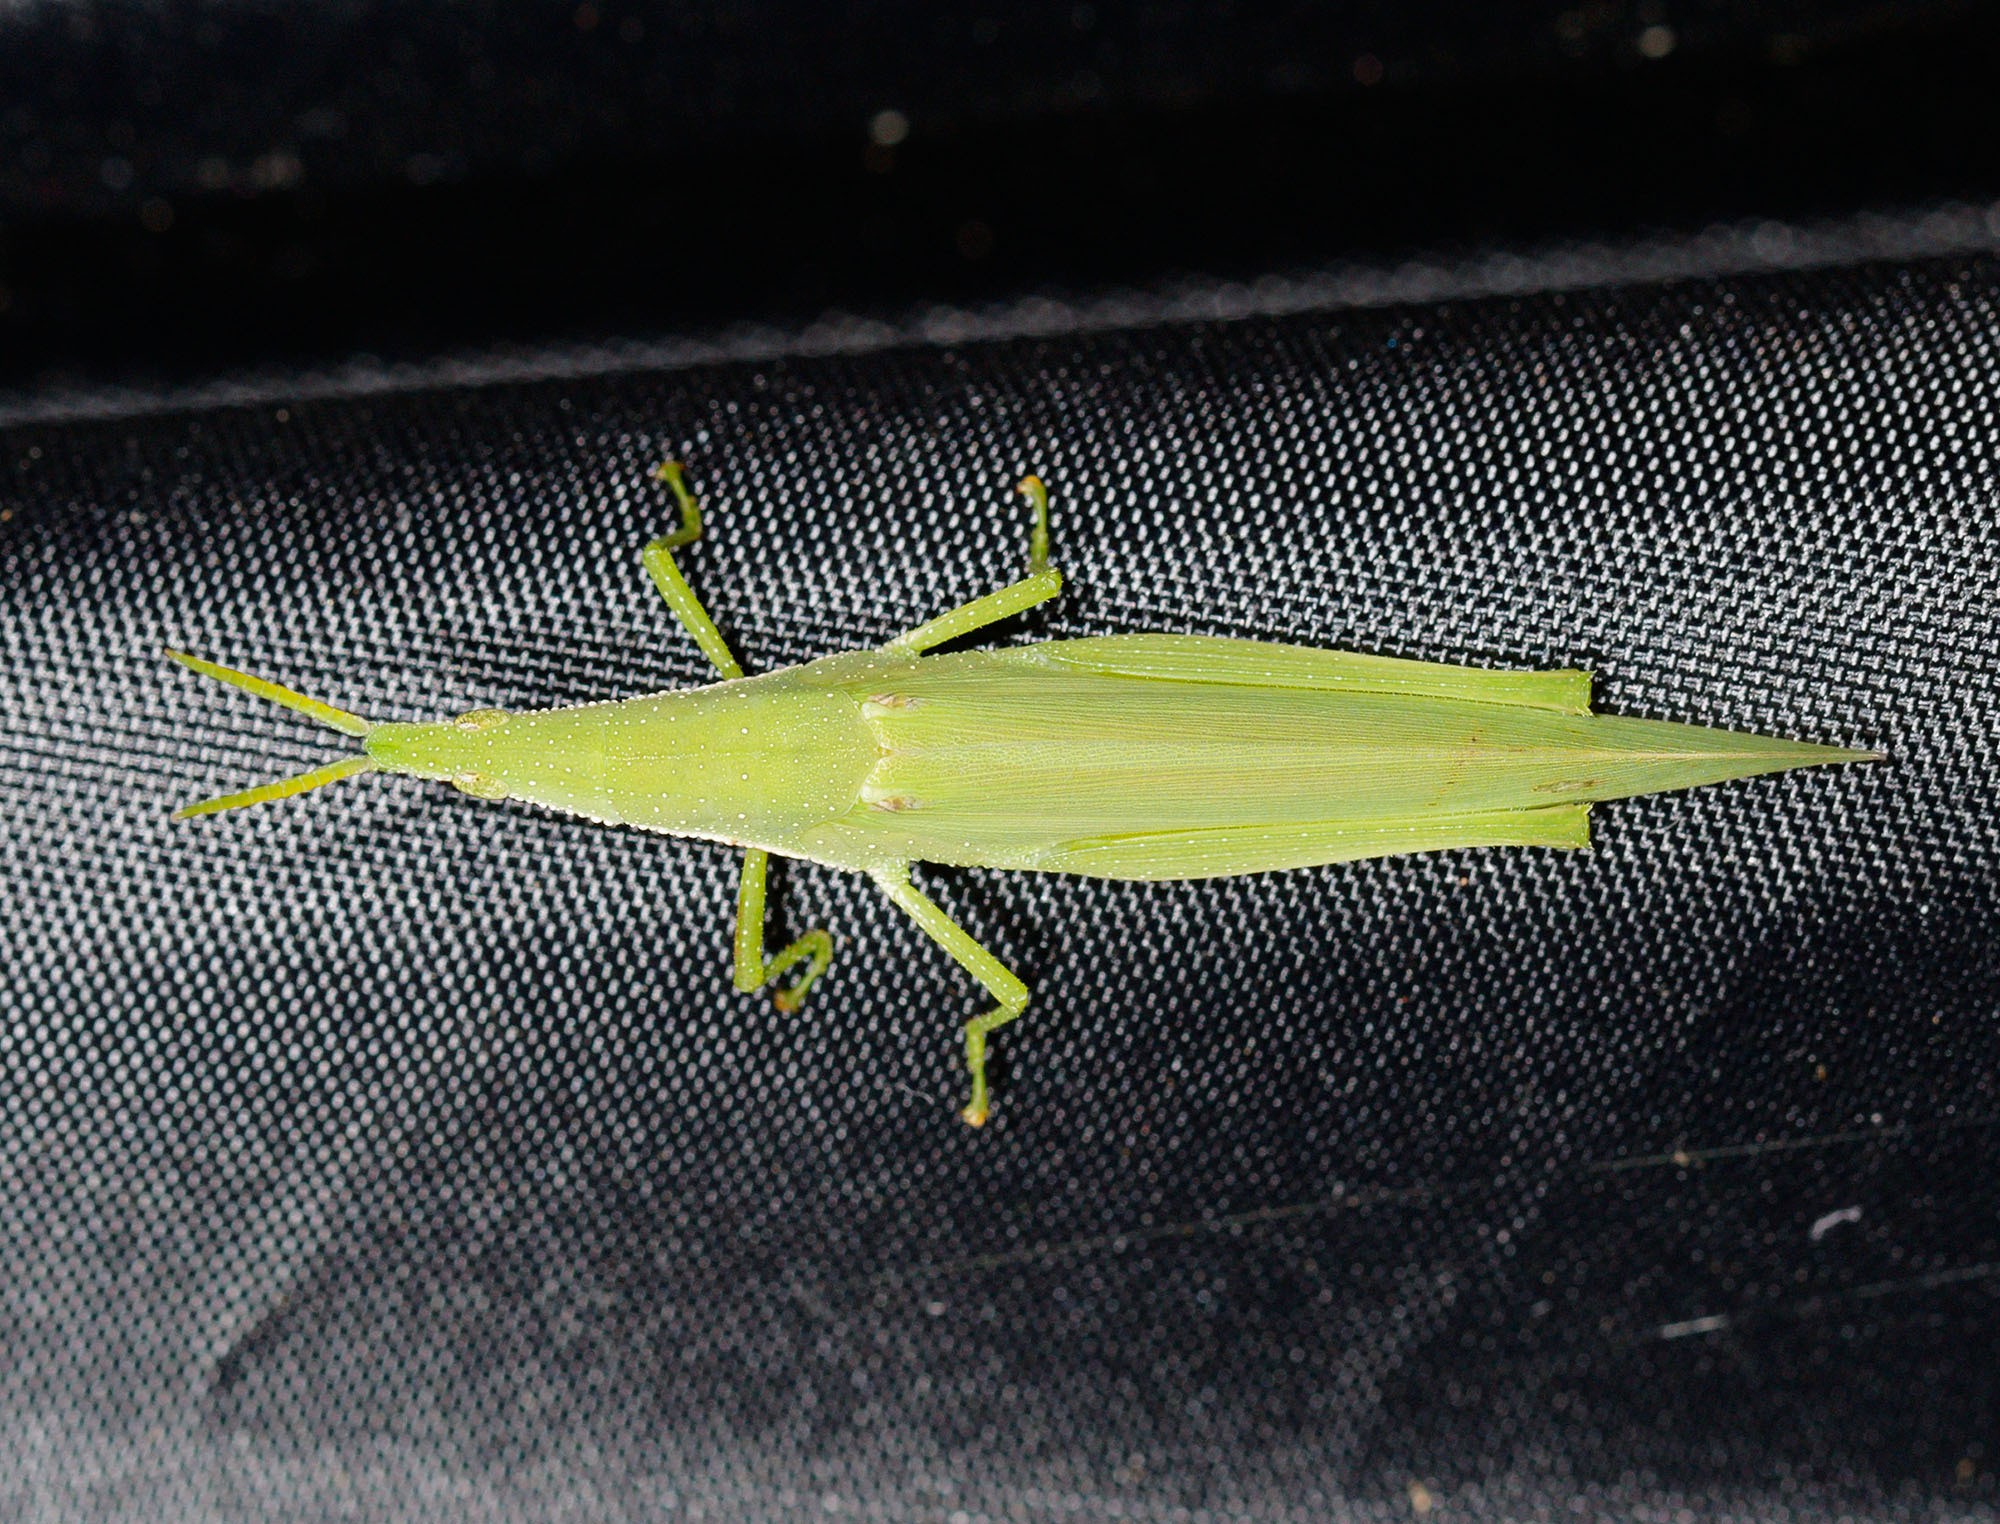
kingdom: Animalia
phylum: Arthropoda
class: Insecta
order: Orthoptera
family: Pyrgomorphidae
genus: Atractomorpha
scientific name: Atractomorpha similis
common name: Northern grass pyrgomorph
